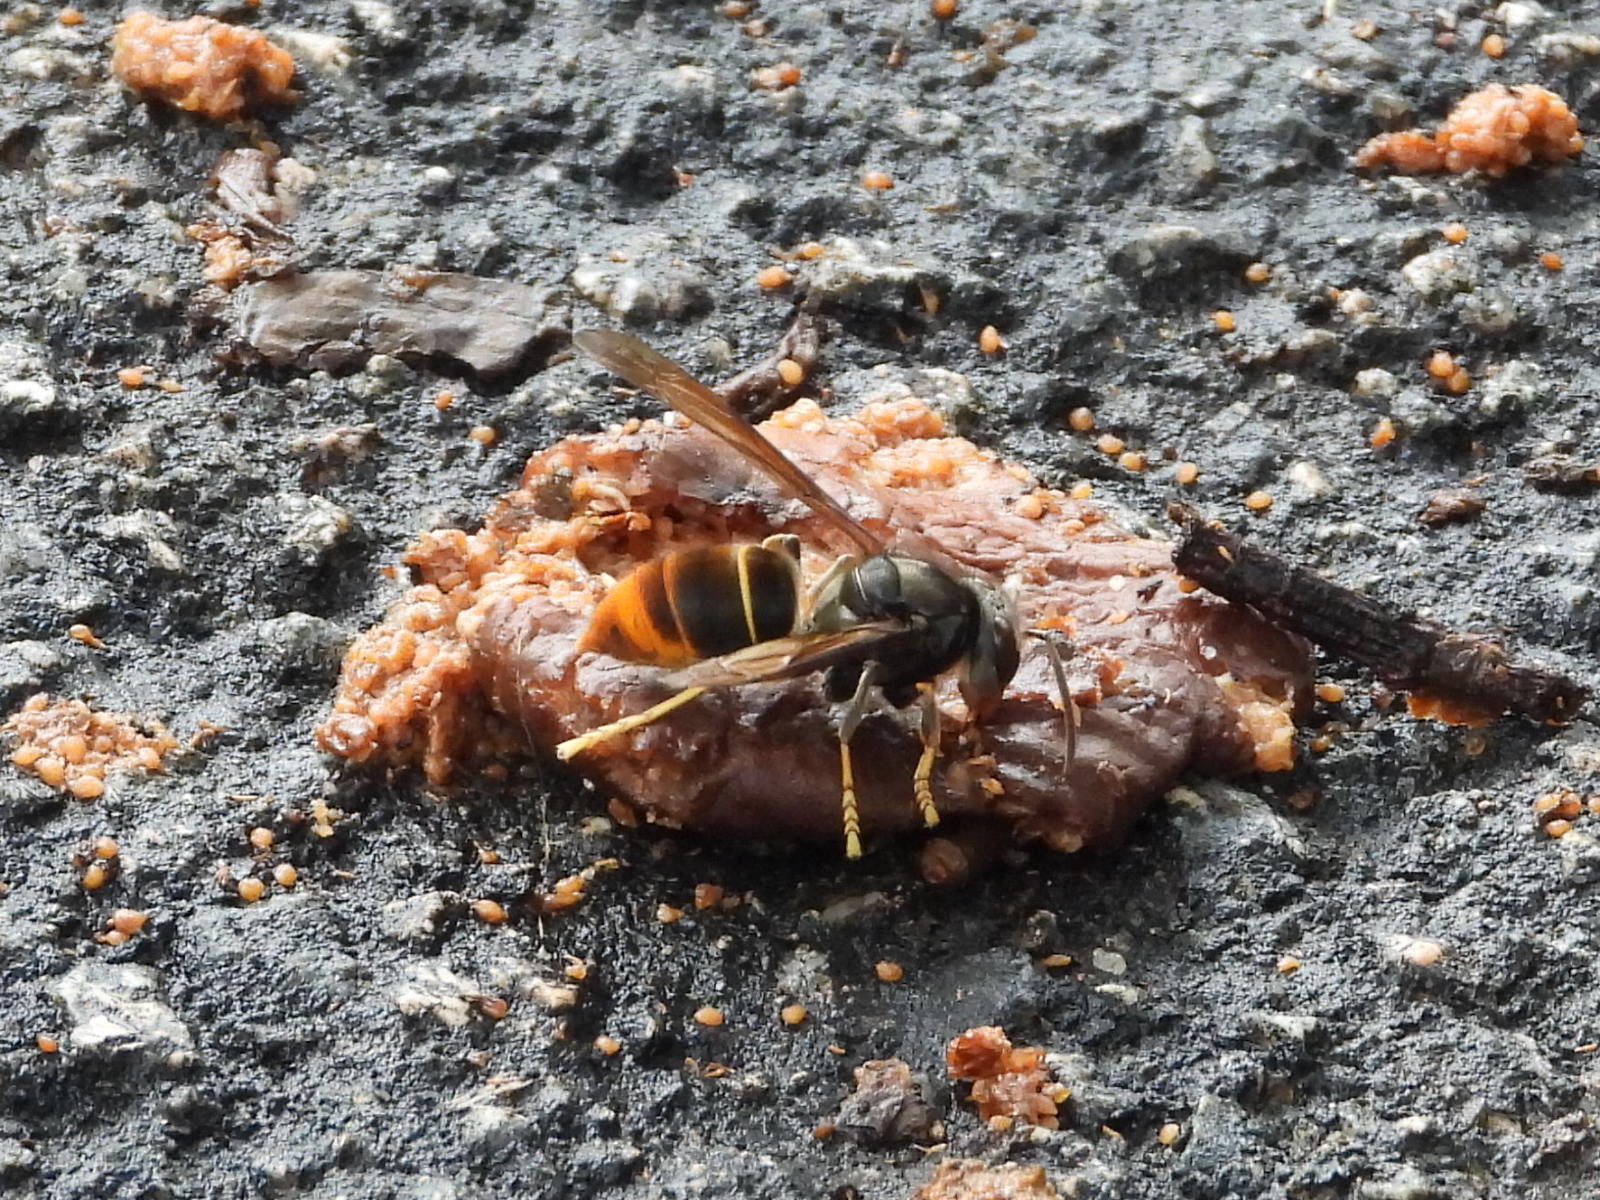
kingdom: Animalia
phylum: Arthropoda
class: Insecta
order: Hymenoptera
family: Vespidae
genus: Vespa
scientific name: Vespa velutina
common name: Asian hornet
